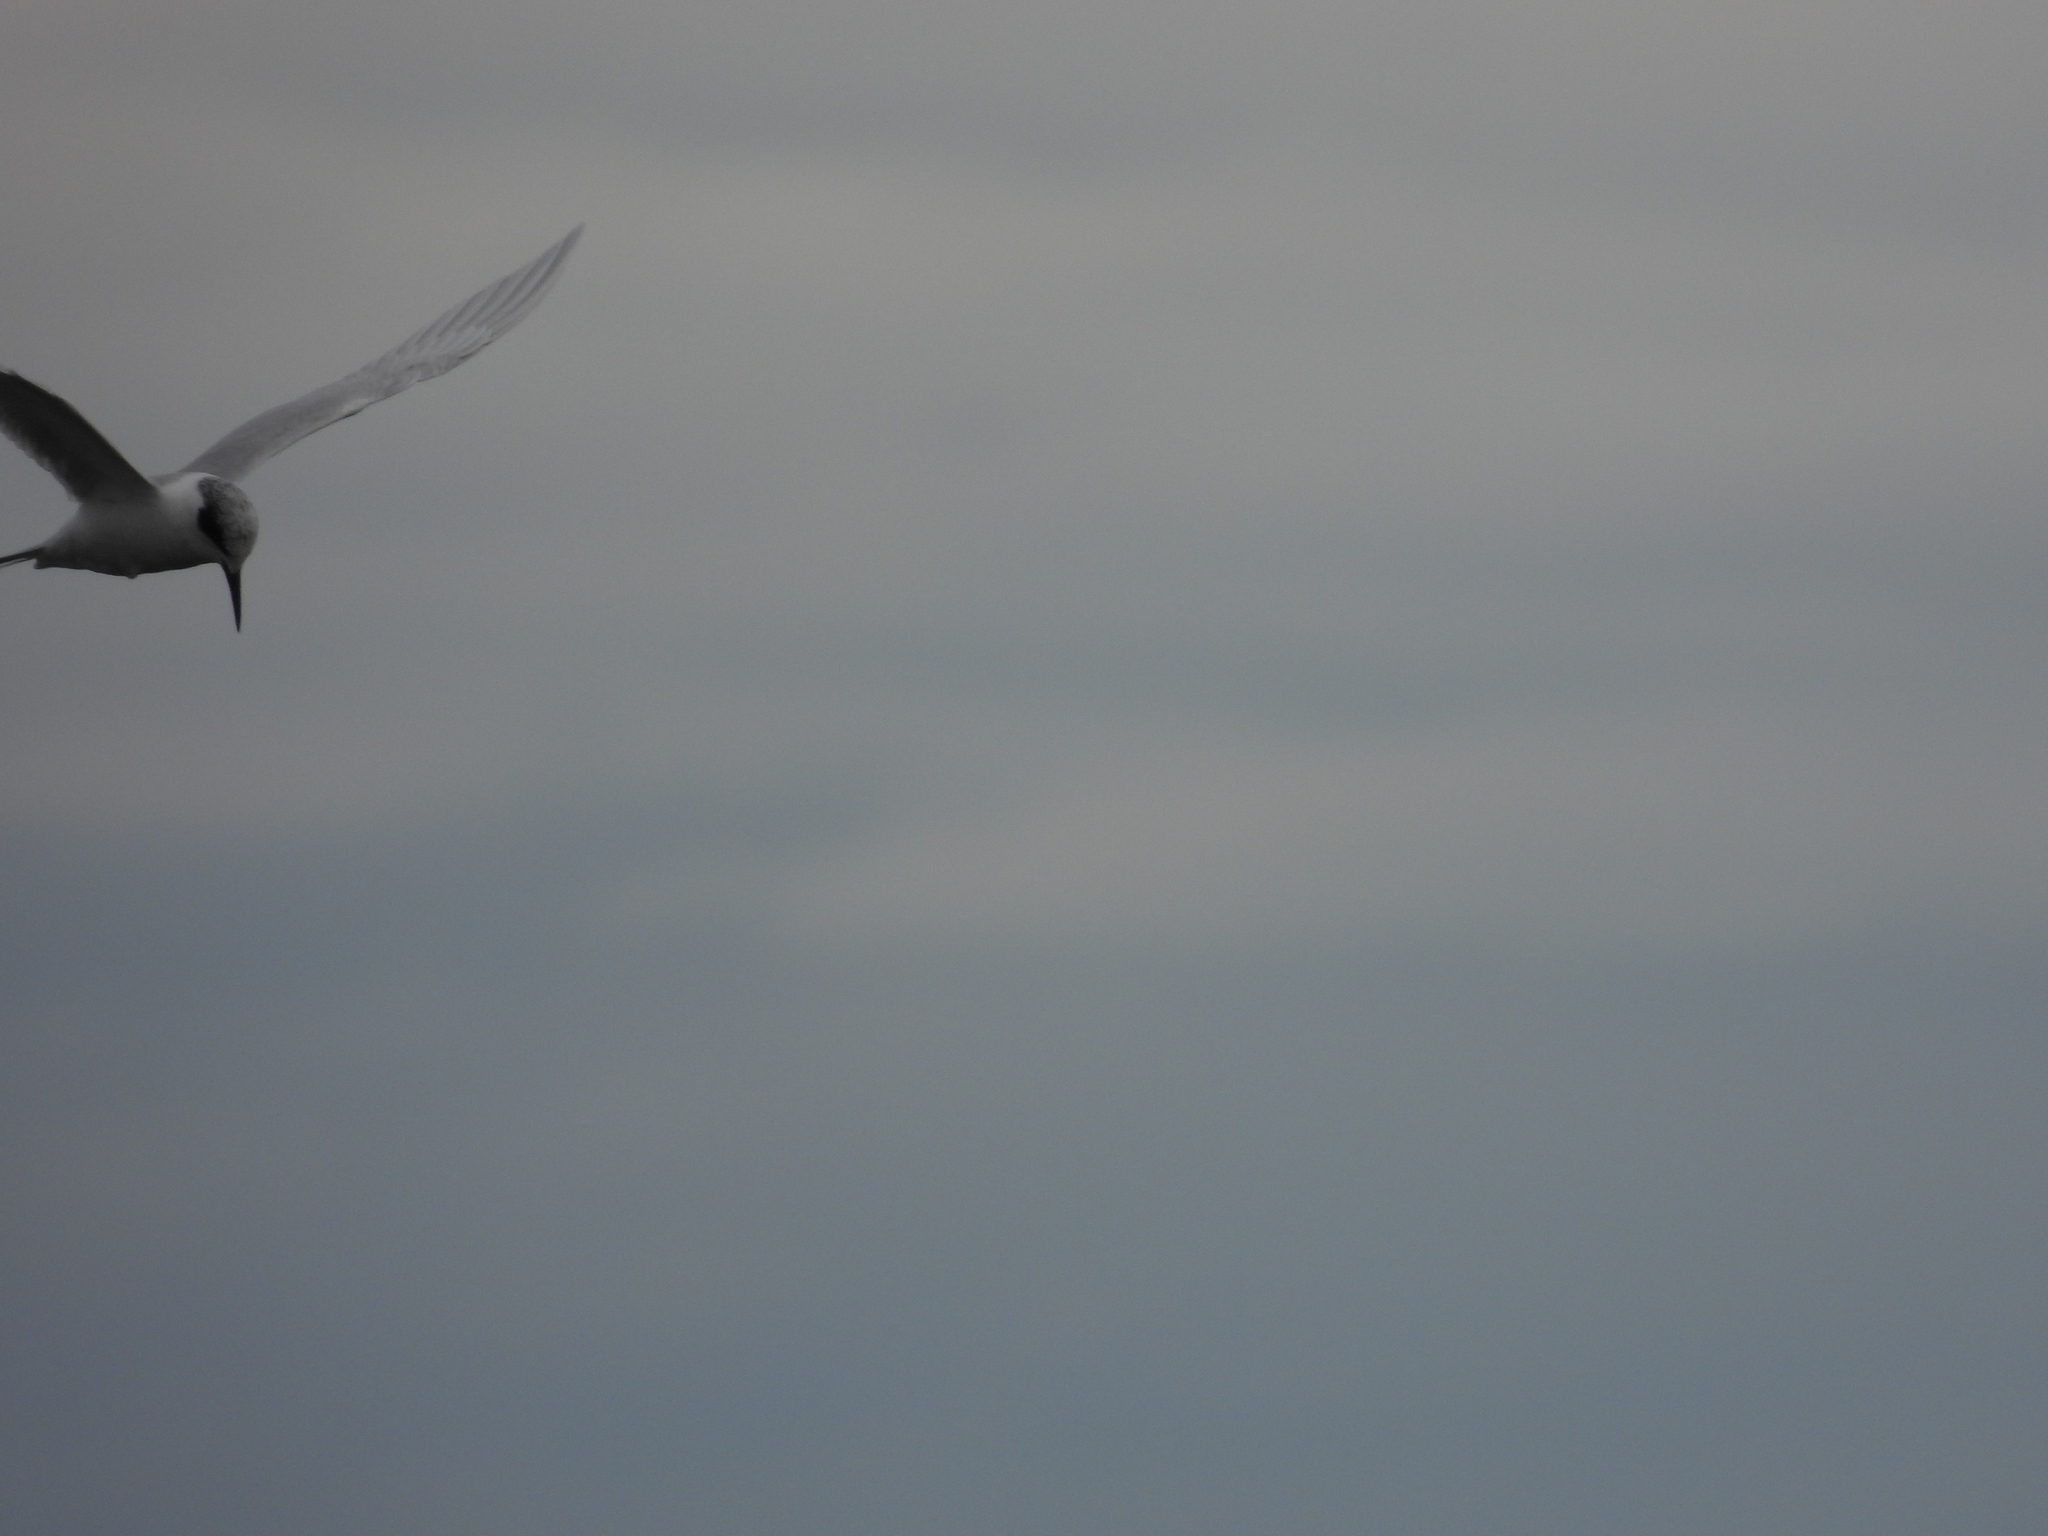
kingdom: Animalia
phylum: Chordata
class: Aves
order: Charadriiformes
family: Laridae
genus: Sterna
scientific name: Sterna forsteri
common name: Forster's tern
